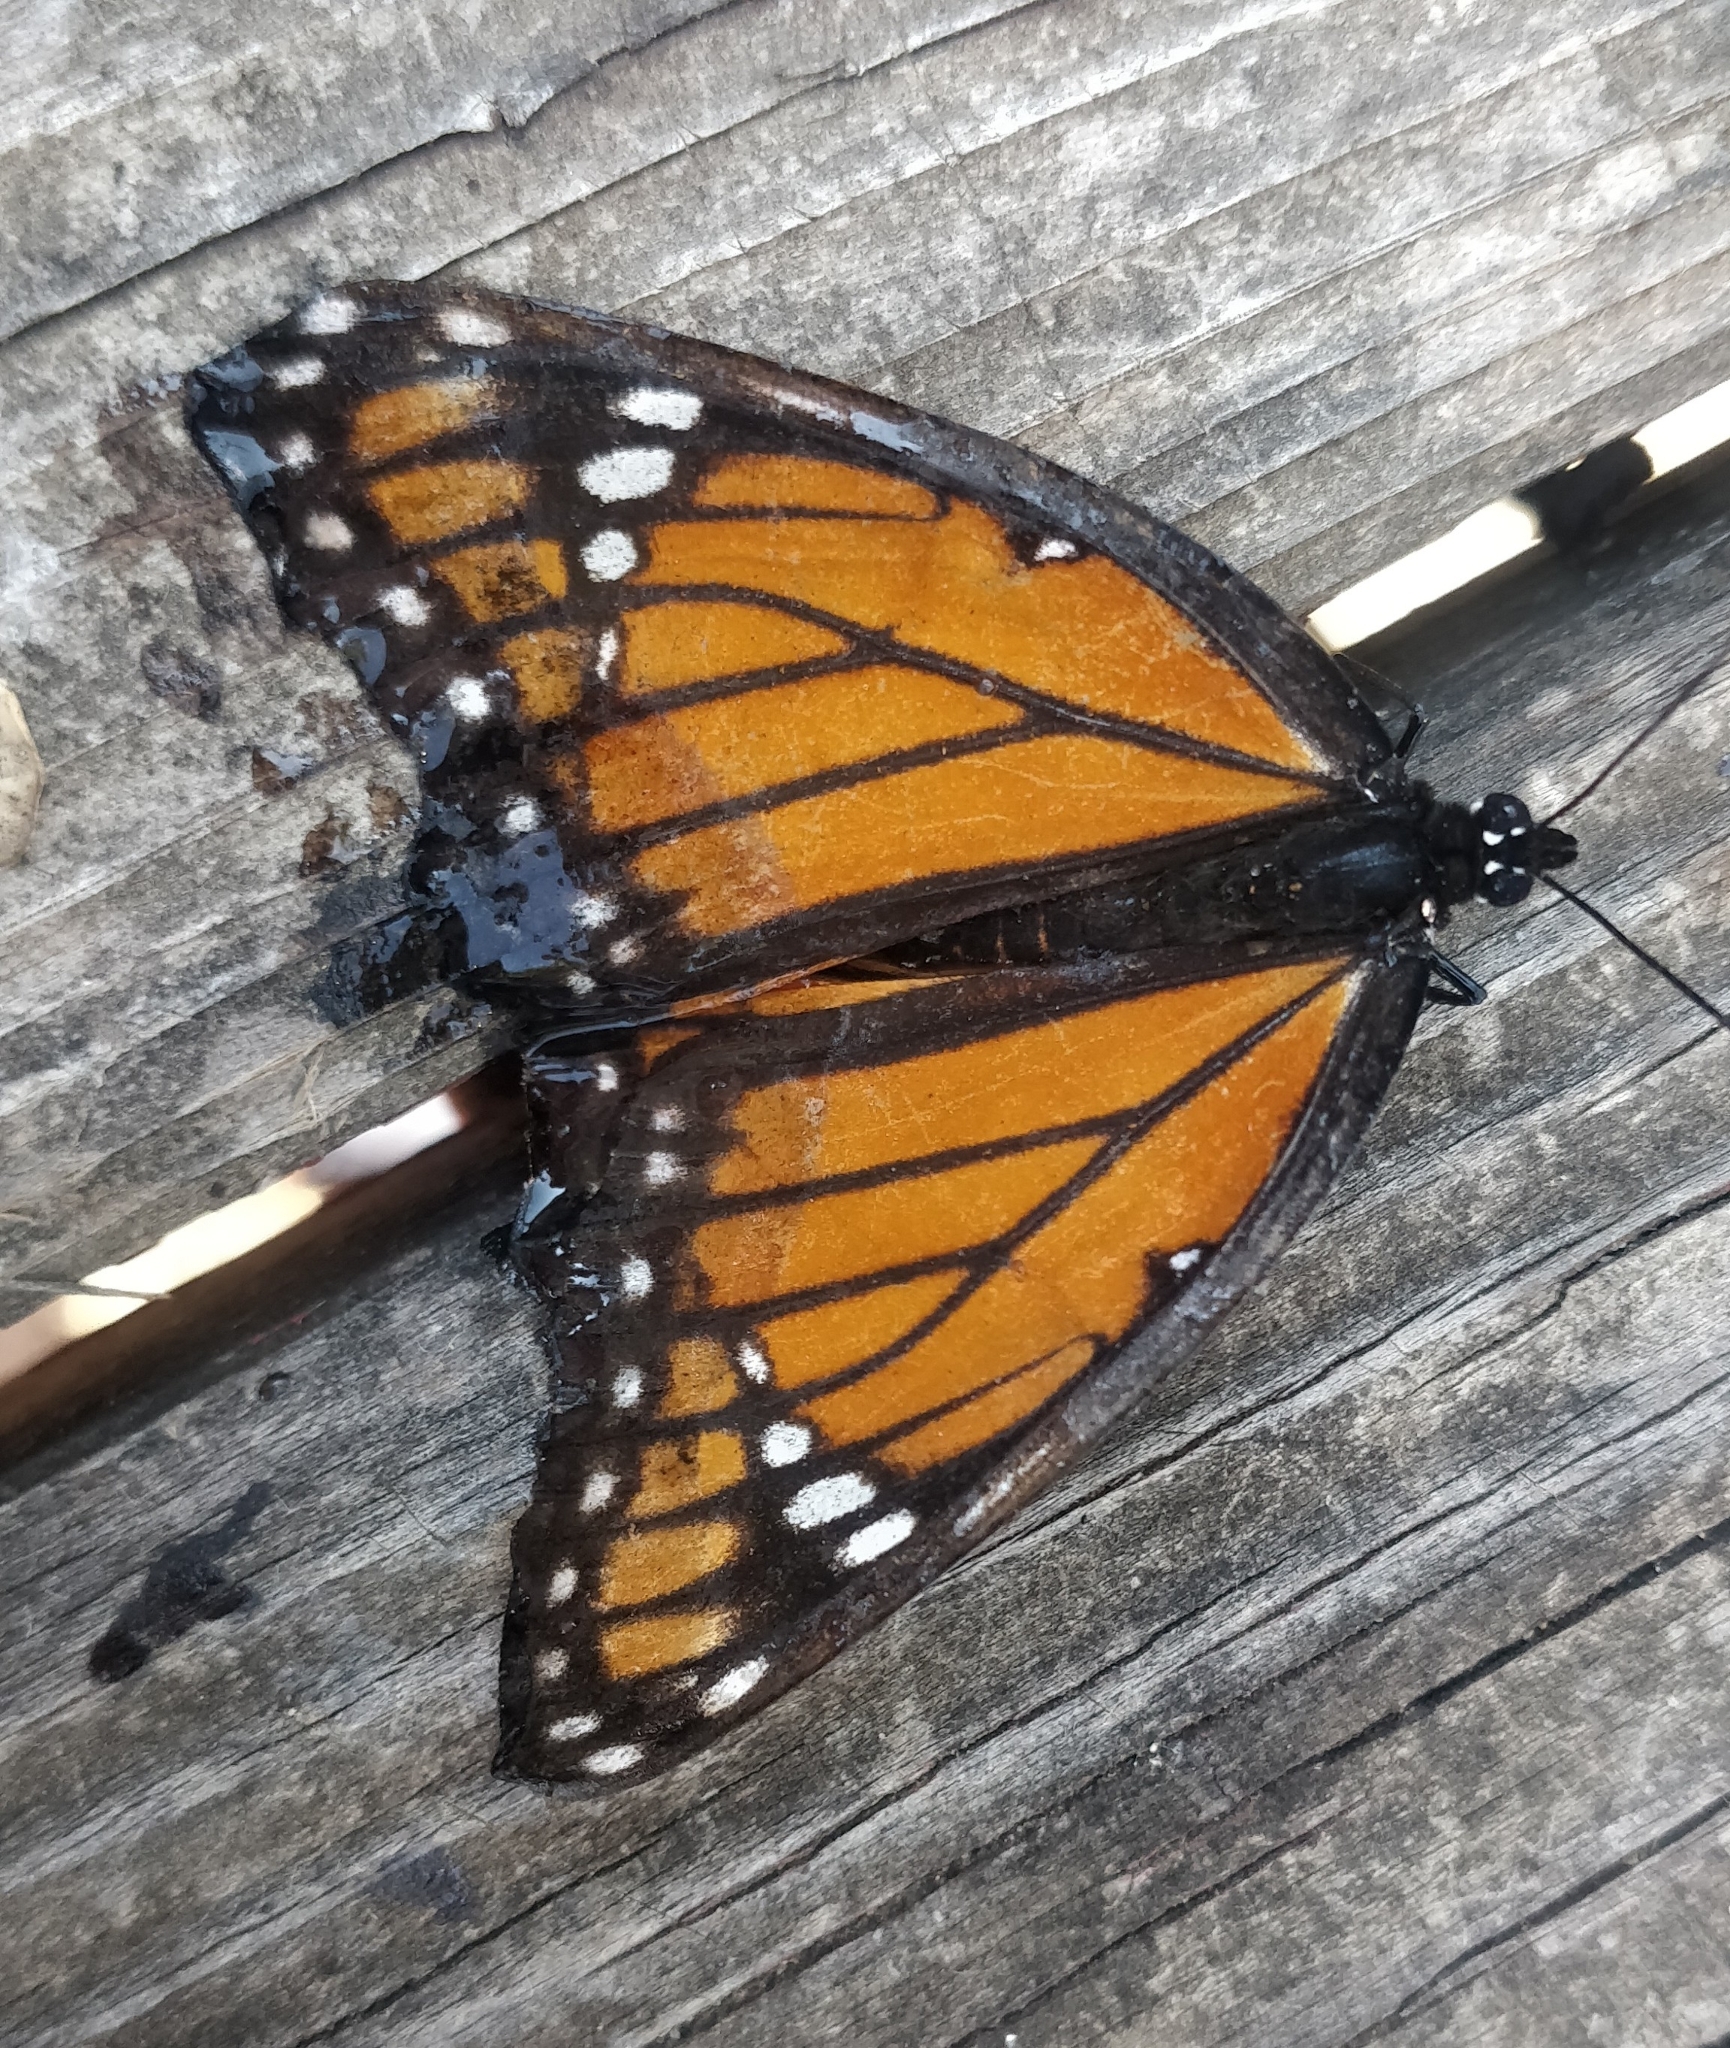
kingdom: Animalia
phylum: Arthropoda
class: Insecta
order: Lepidoptera
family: Nymphalidae
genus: Limenitis
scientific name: Limenitis archippus
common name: Viceroy
